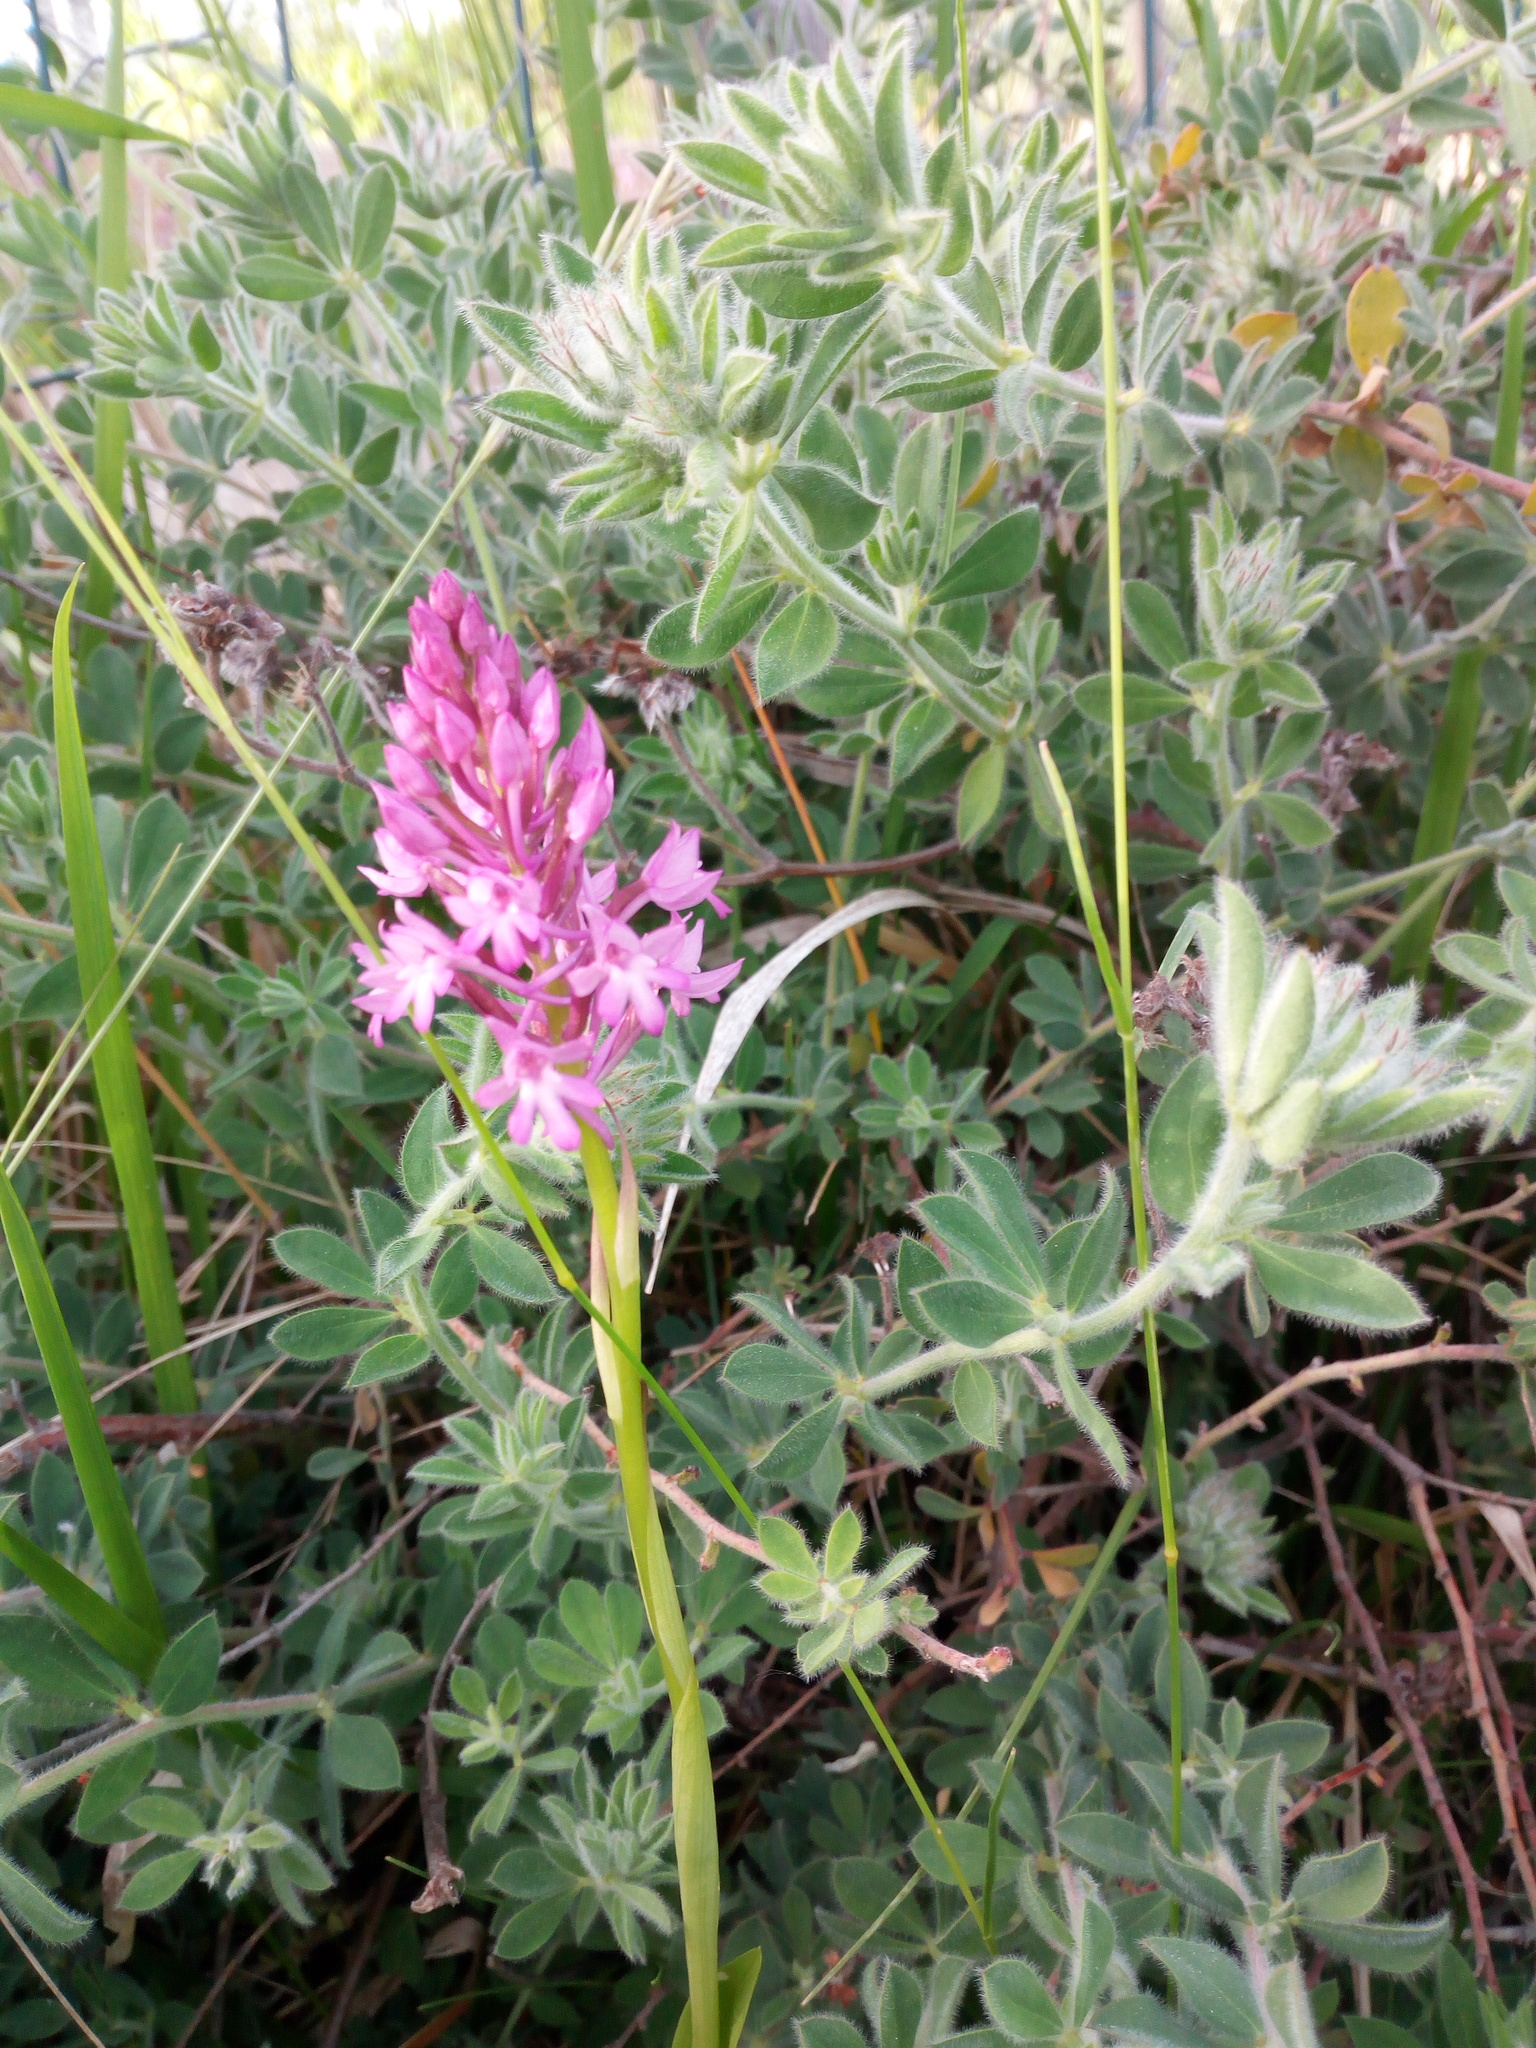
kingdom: Plantae
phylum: Tracheophyta
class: Liliopsida
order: Asparagales
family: Orchidaceae
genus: Anacamptis
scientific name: Anacamptis pyramidalis
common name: Pyramidal orchid
